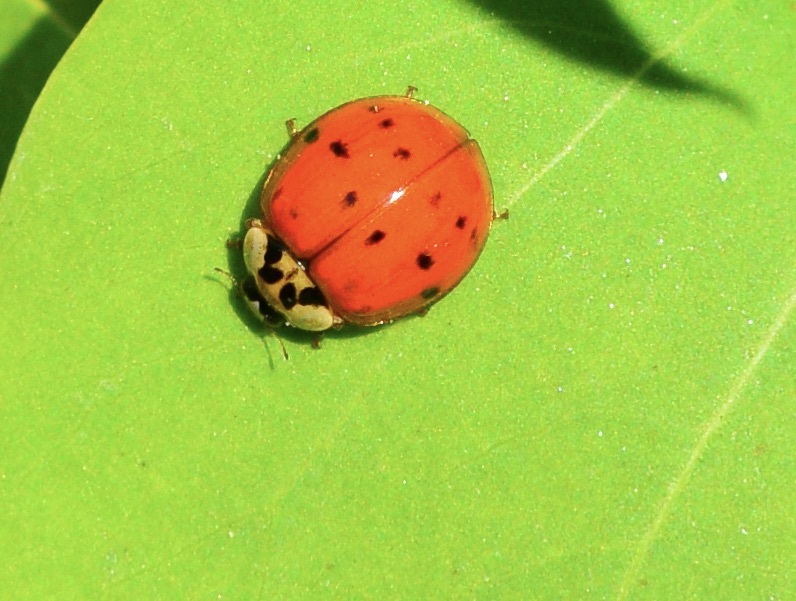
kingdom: Animalia
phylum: Arthropoda
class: Insecta
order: Coleoptera
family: Coccinellidae
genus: Harmonia
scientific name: Harmonia axyridis
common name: Harlequin ladybird
